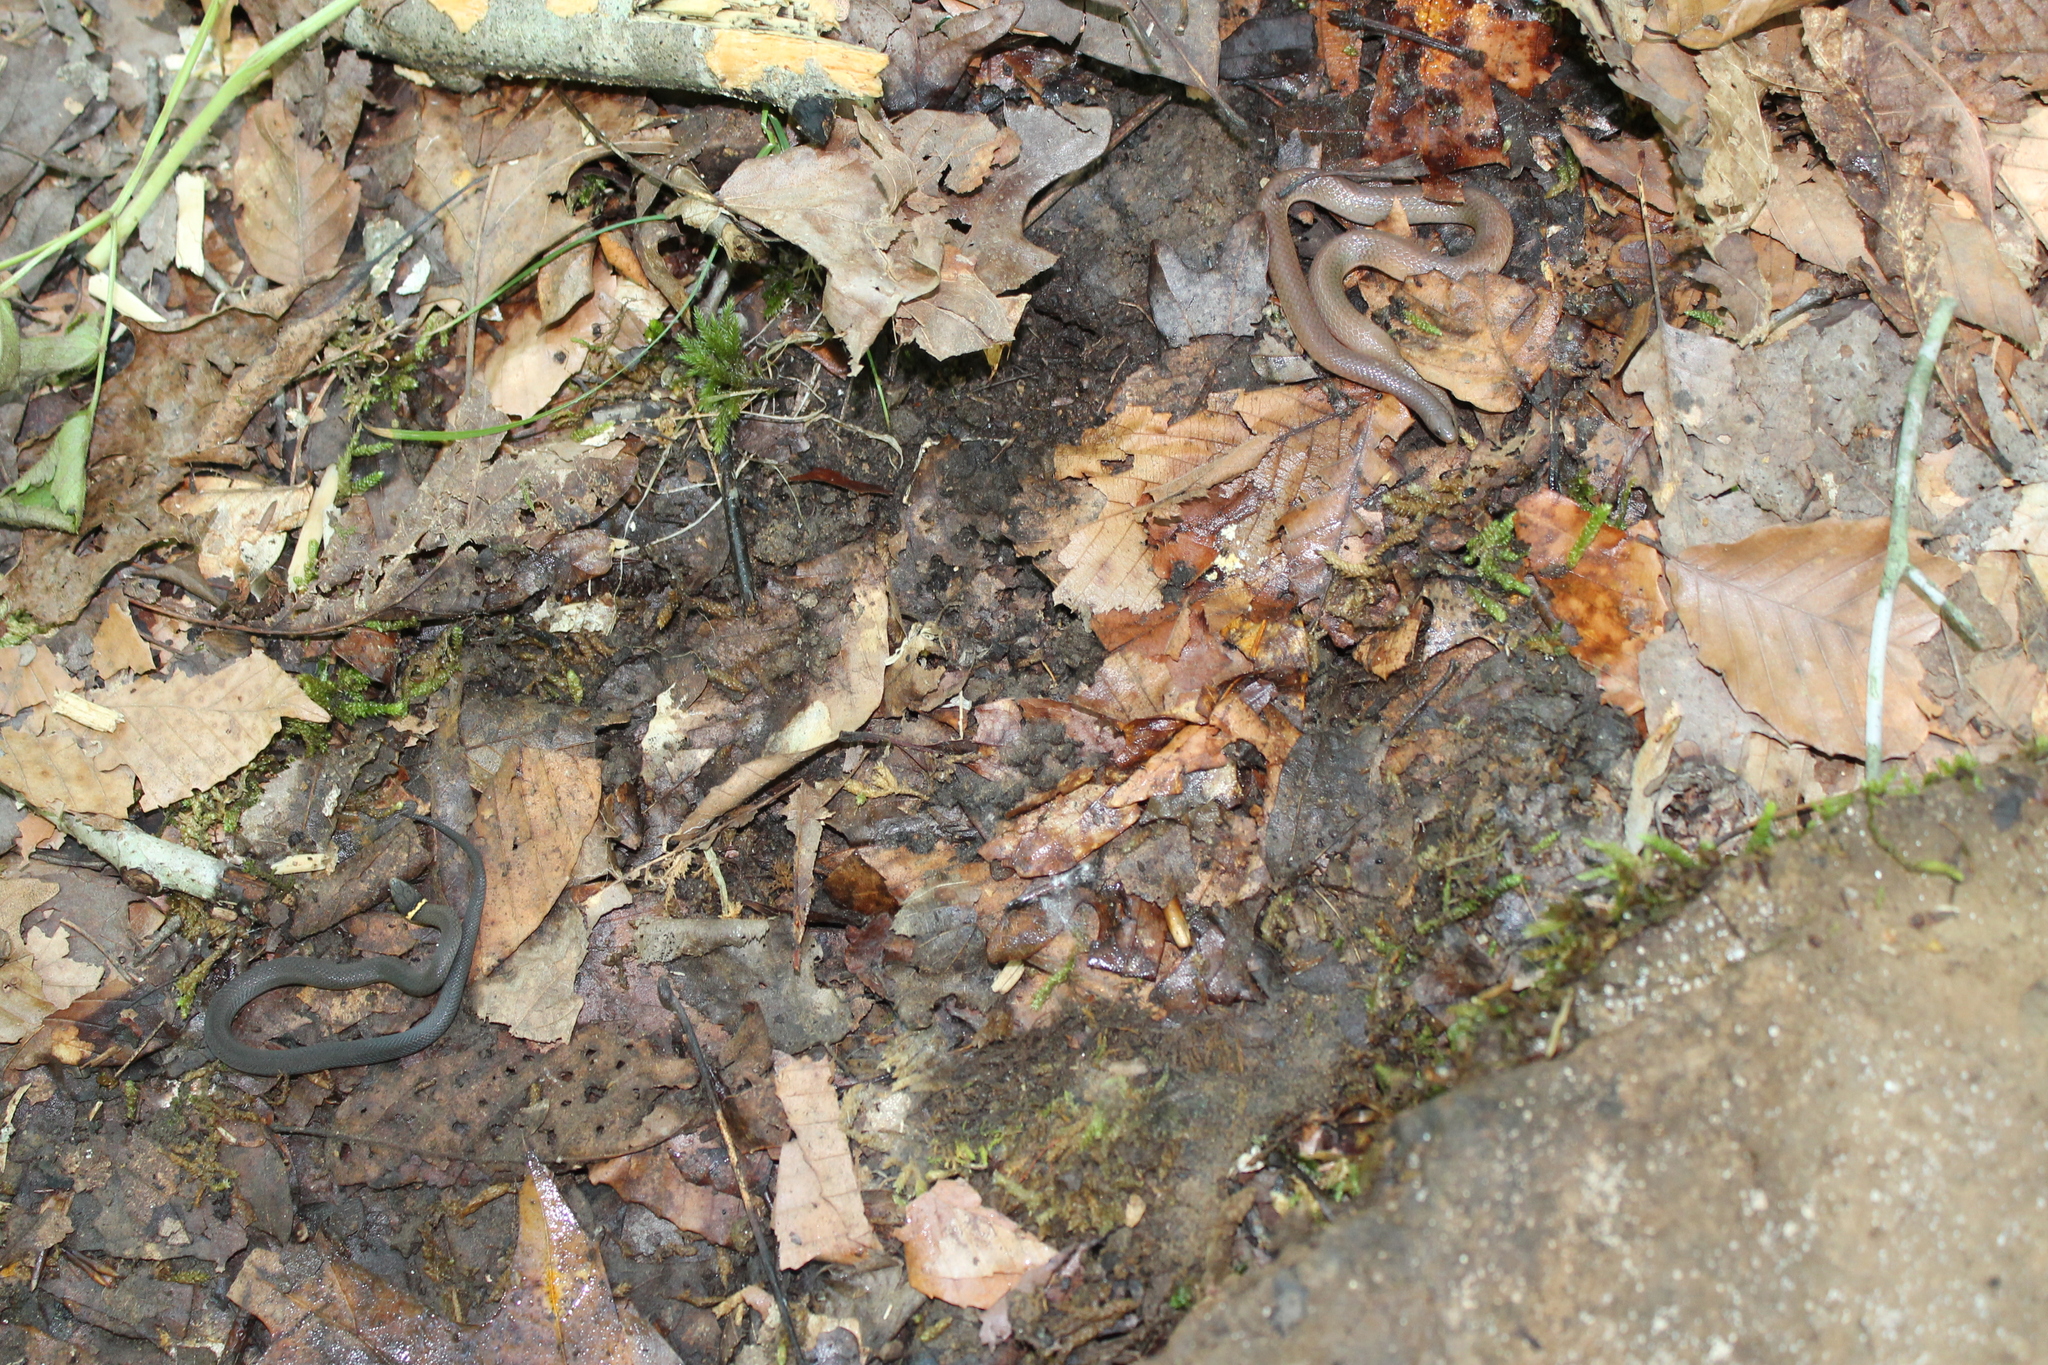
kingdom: Animalia
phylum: Chordata
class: Squamata
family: Colubridae
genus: Diadophis
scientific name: Diadophis punctatus
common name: Ringneck snake
